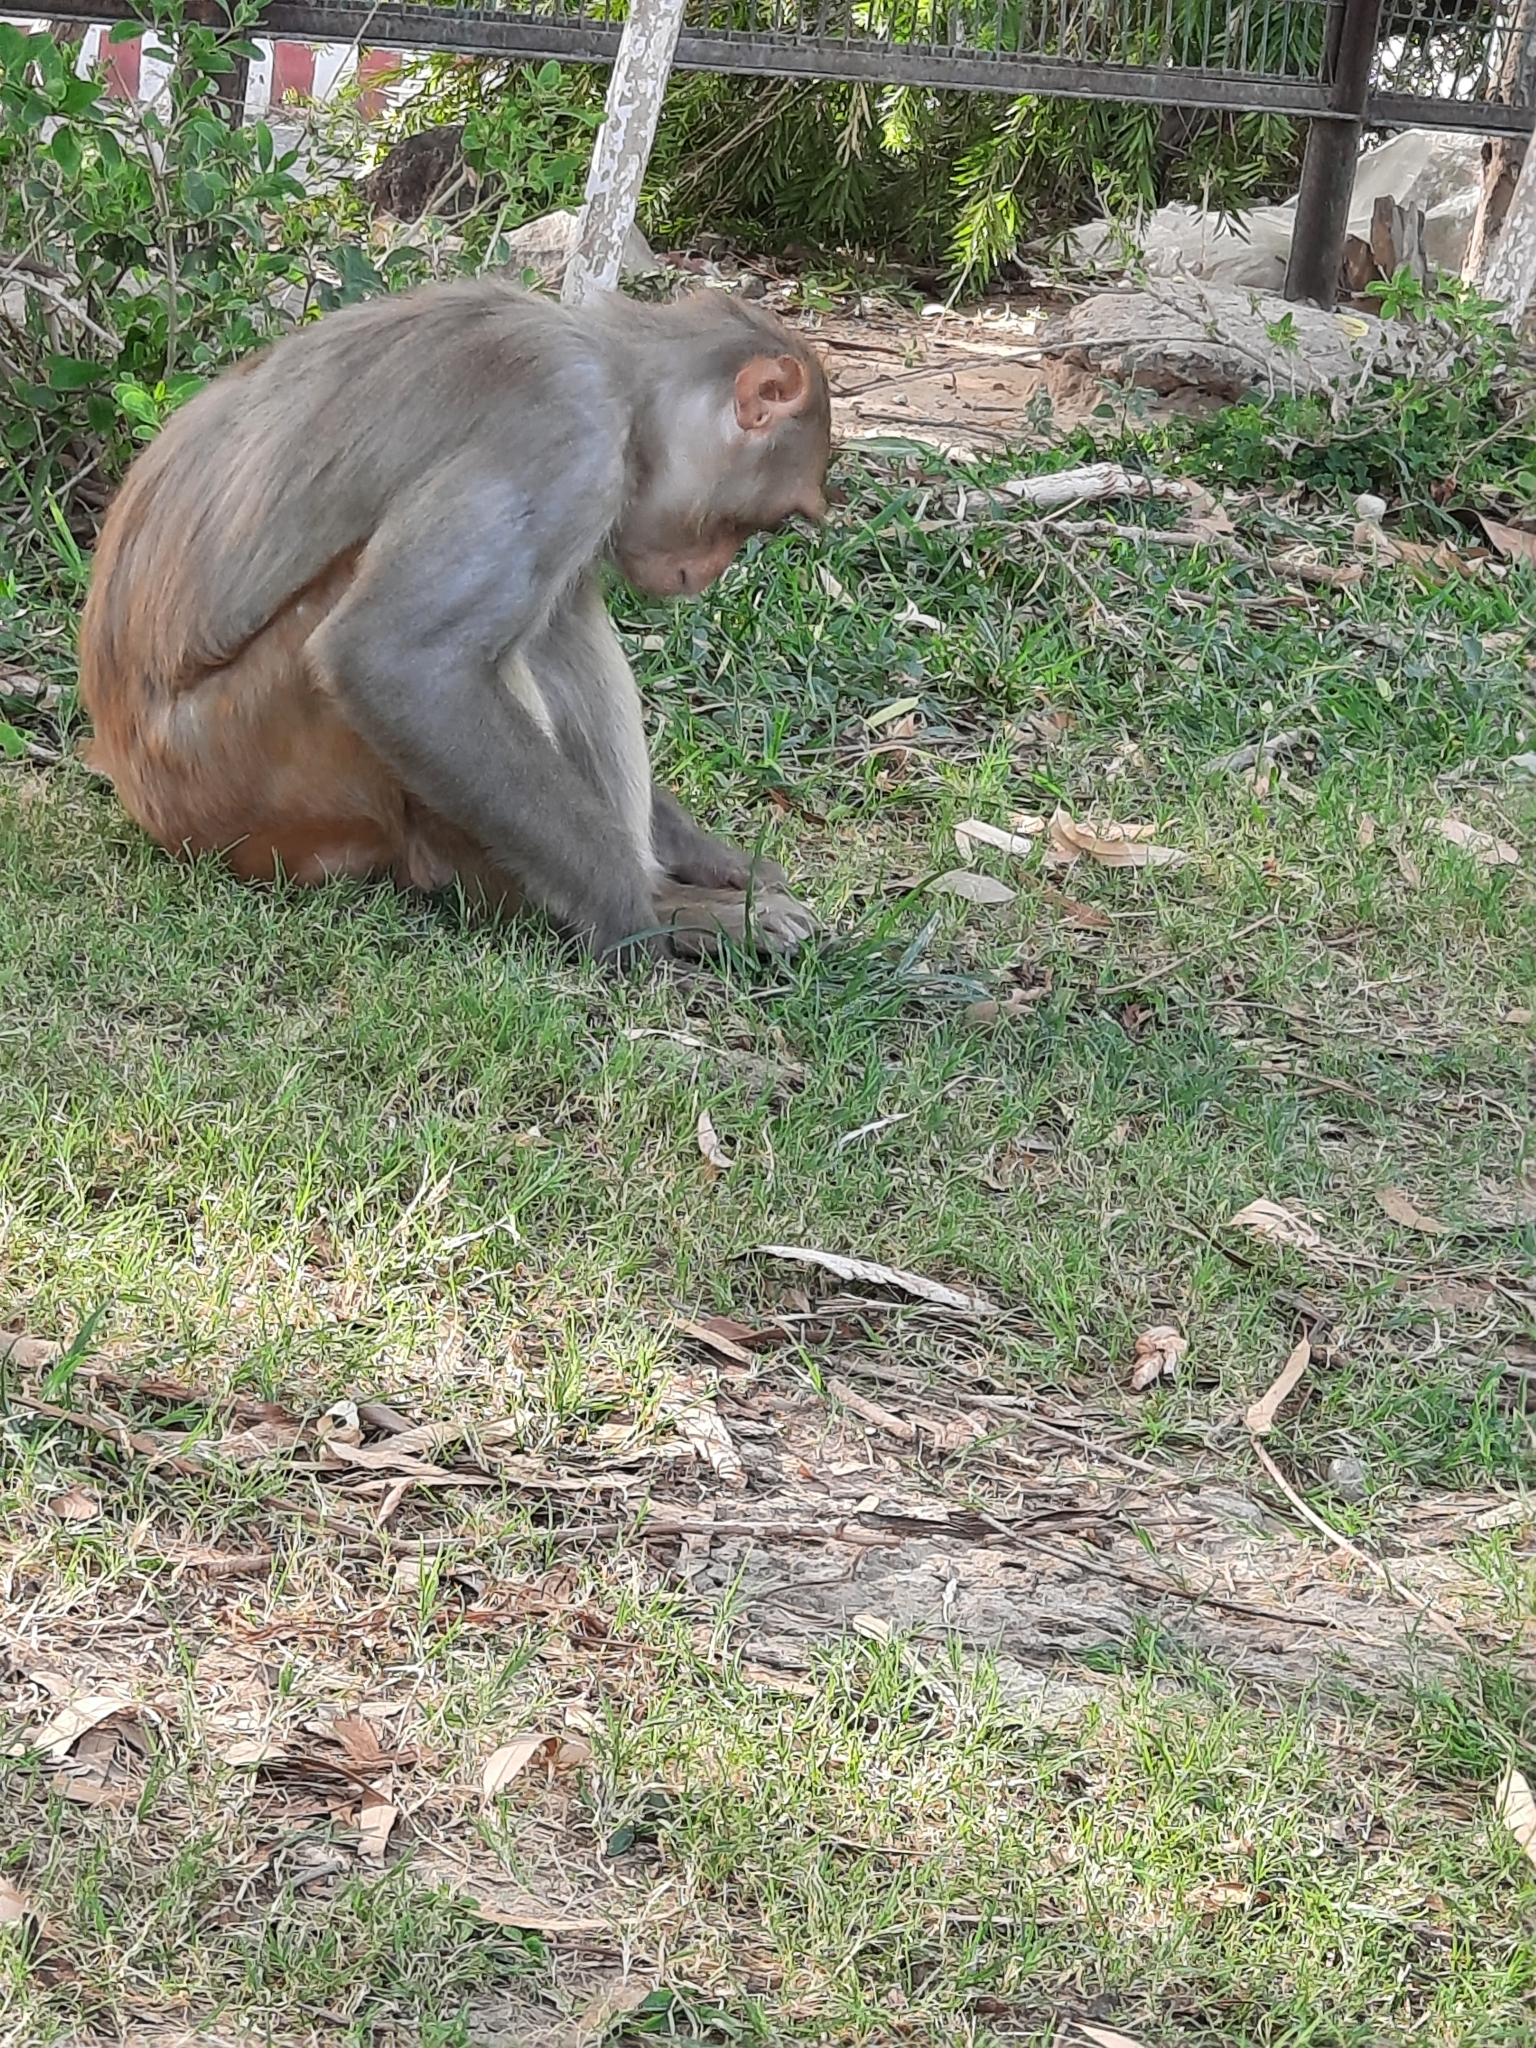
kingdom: Animalia
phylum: Chordata
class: Mammalia
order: Primates
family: Cercopithecidae
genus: Macaca
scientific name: Macaca mulatta
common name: Rhesus monkey
